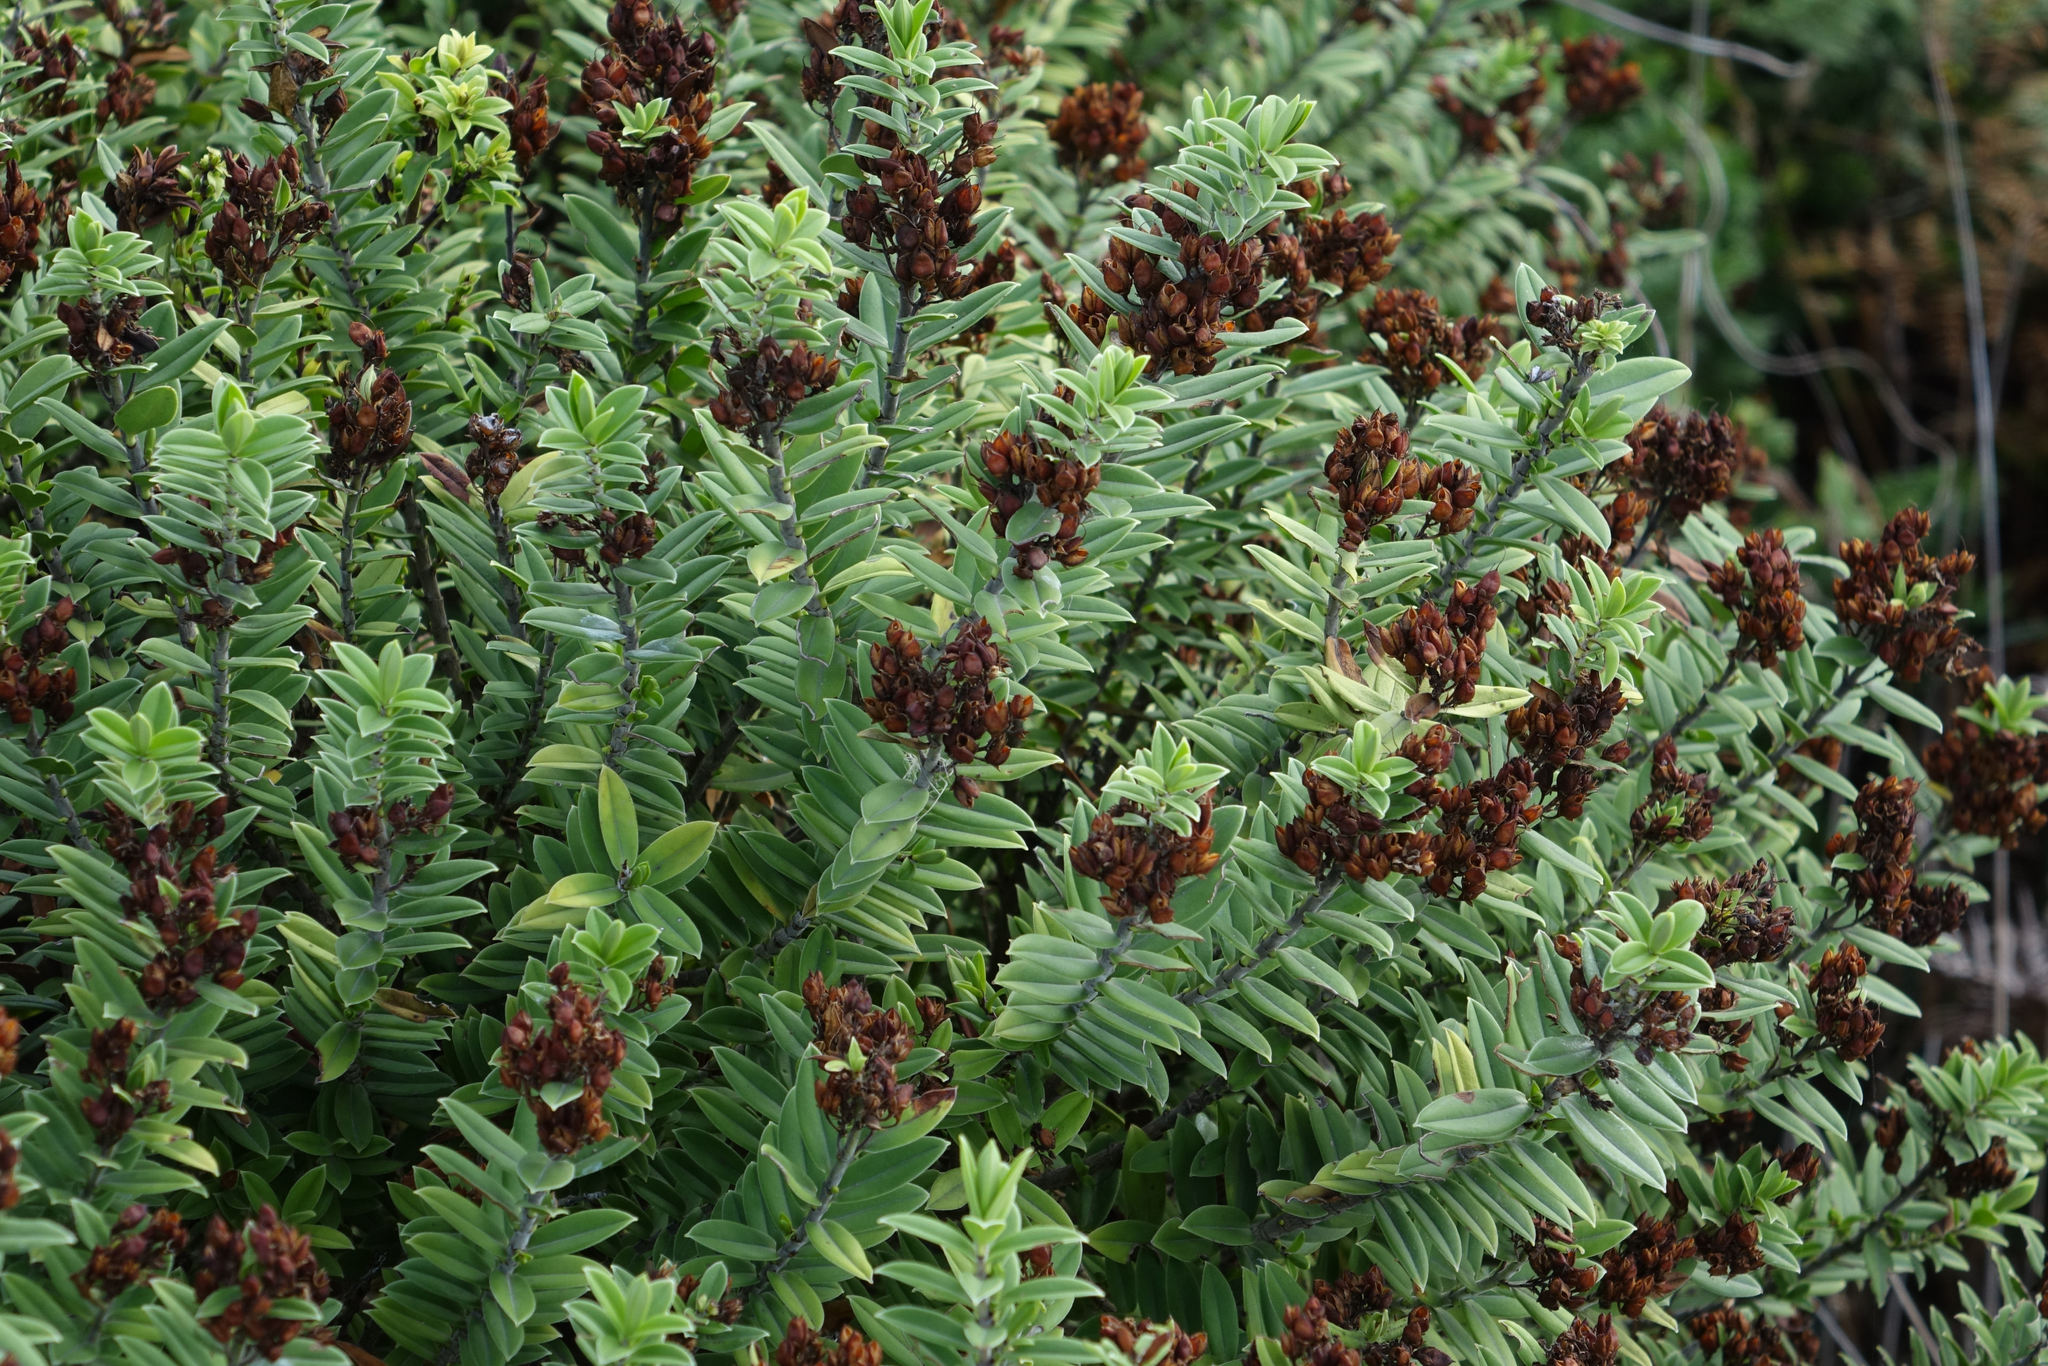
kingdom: Plantae
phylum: Tracheophyta
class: Magnoliopsida
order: Lamiales
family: Plantaginaceae
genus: Veronica
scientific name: Veronica elliptica
